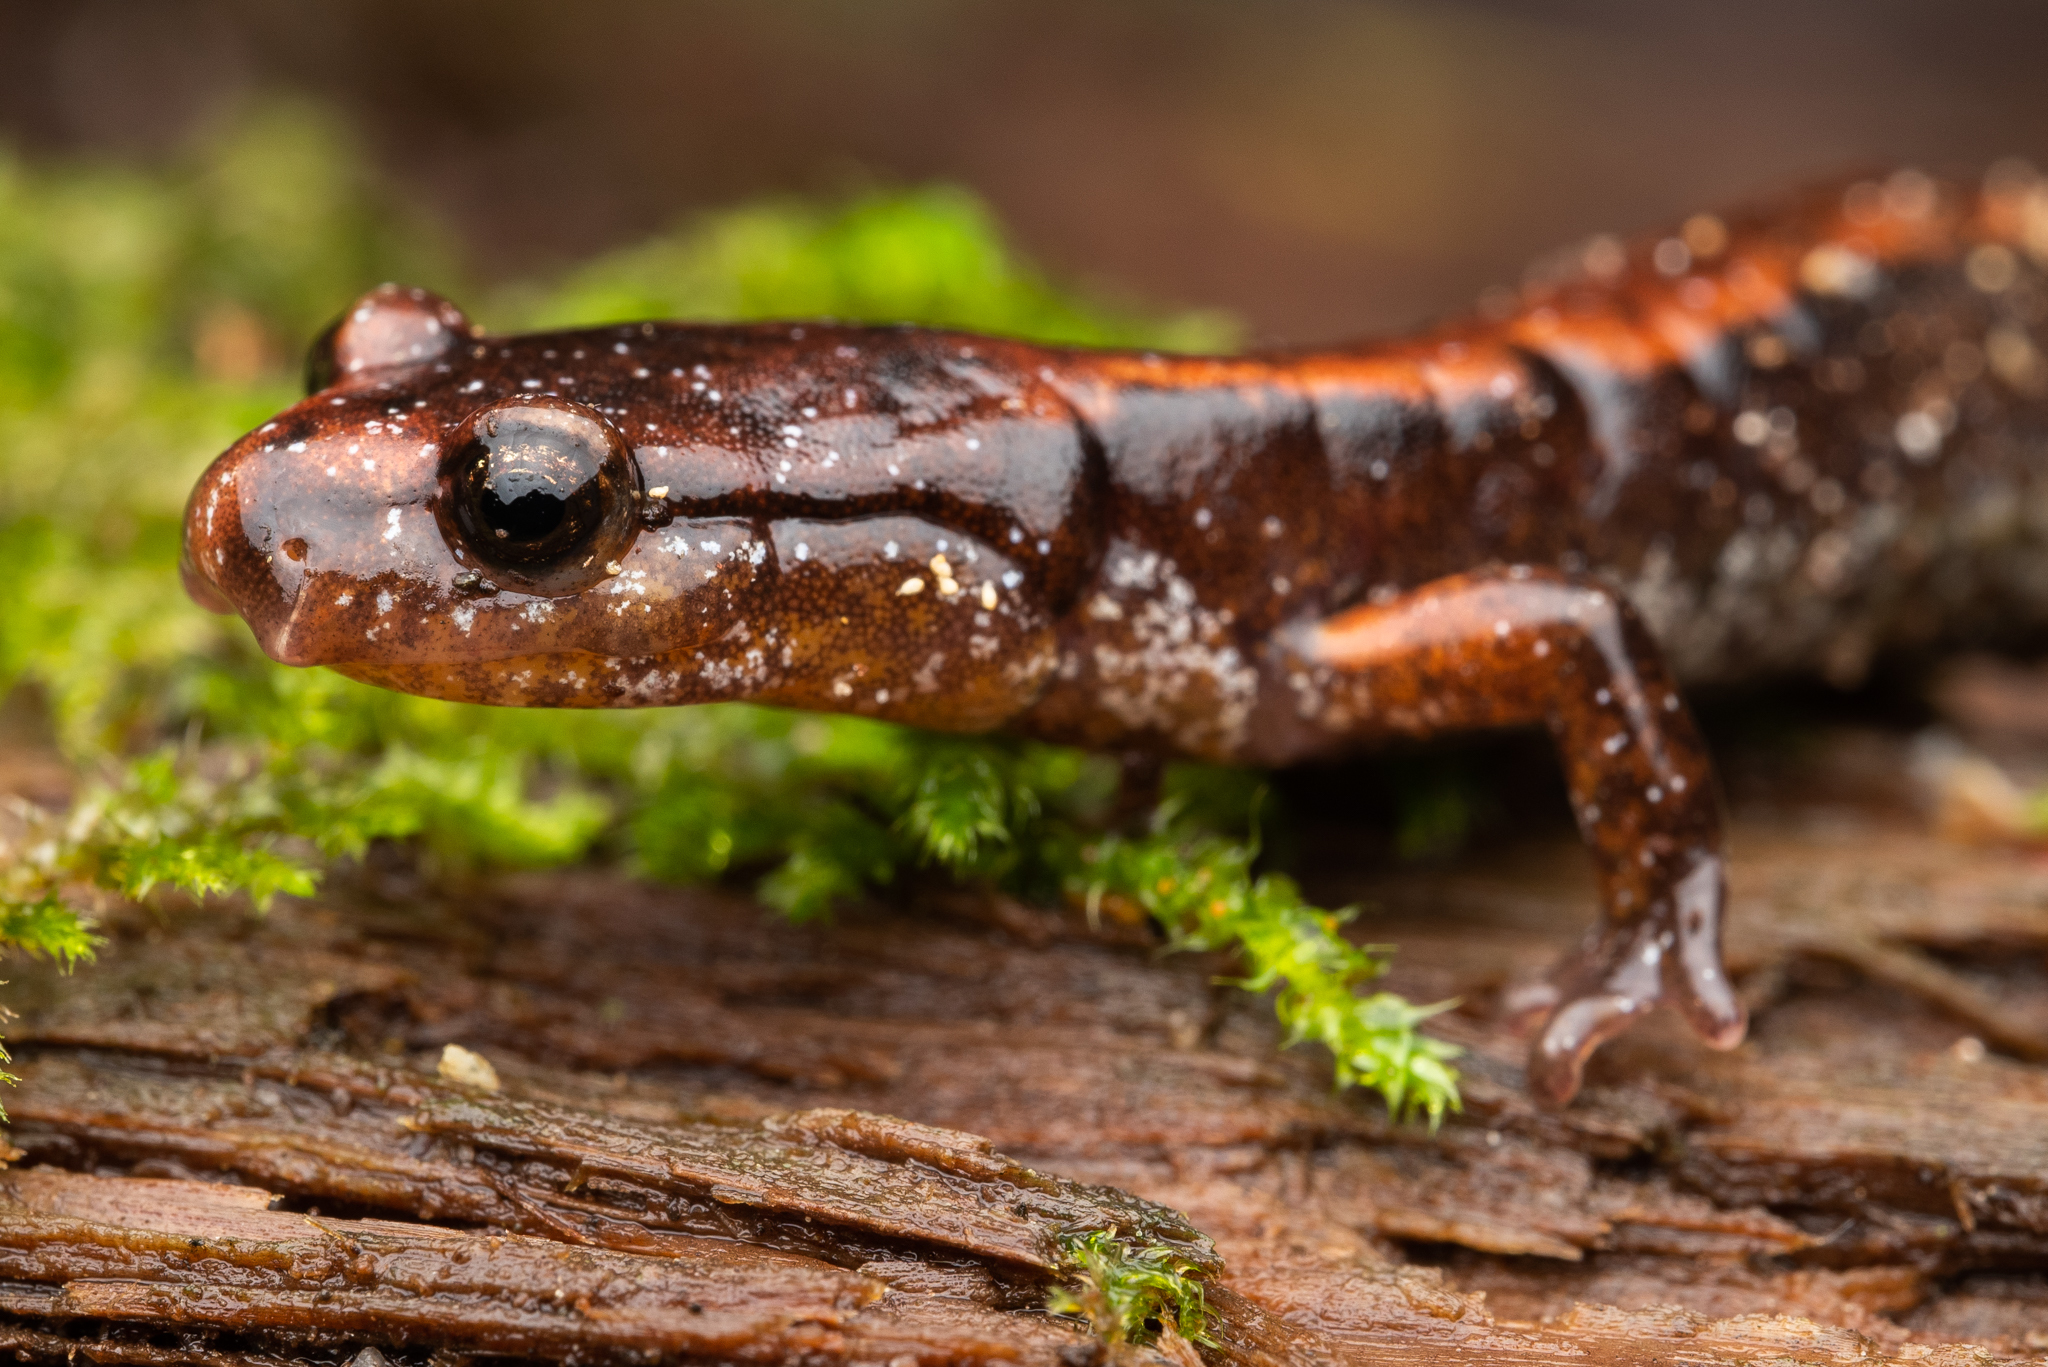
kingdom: Animalia
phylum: Chordata
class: Amphibia
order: Caudata
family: Plethodontidae
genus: Plethodon
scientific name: Plethodon vehiculum
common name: Western red-backed salamander
